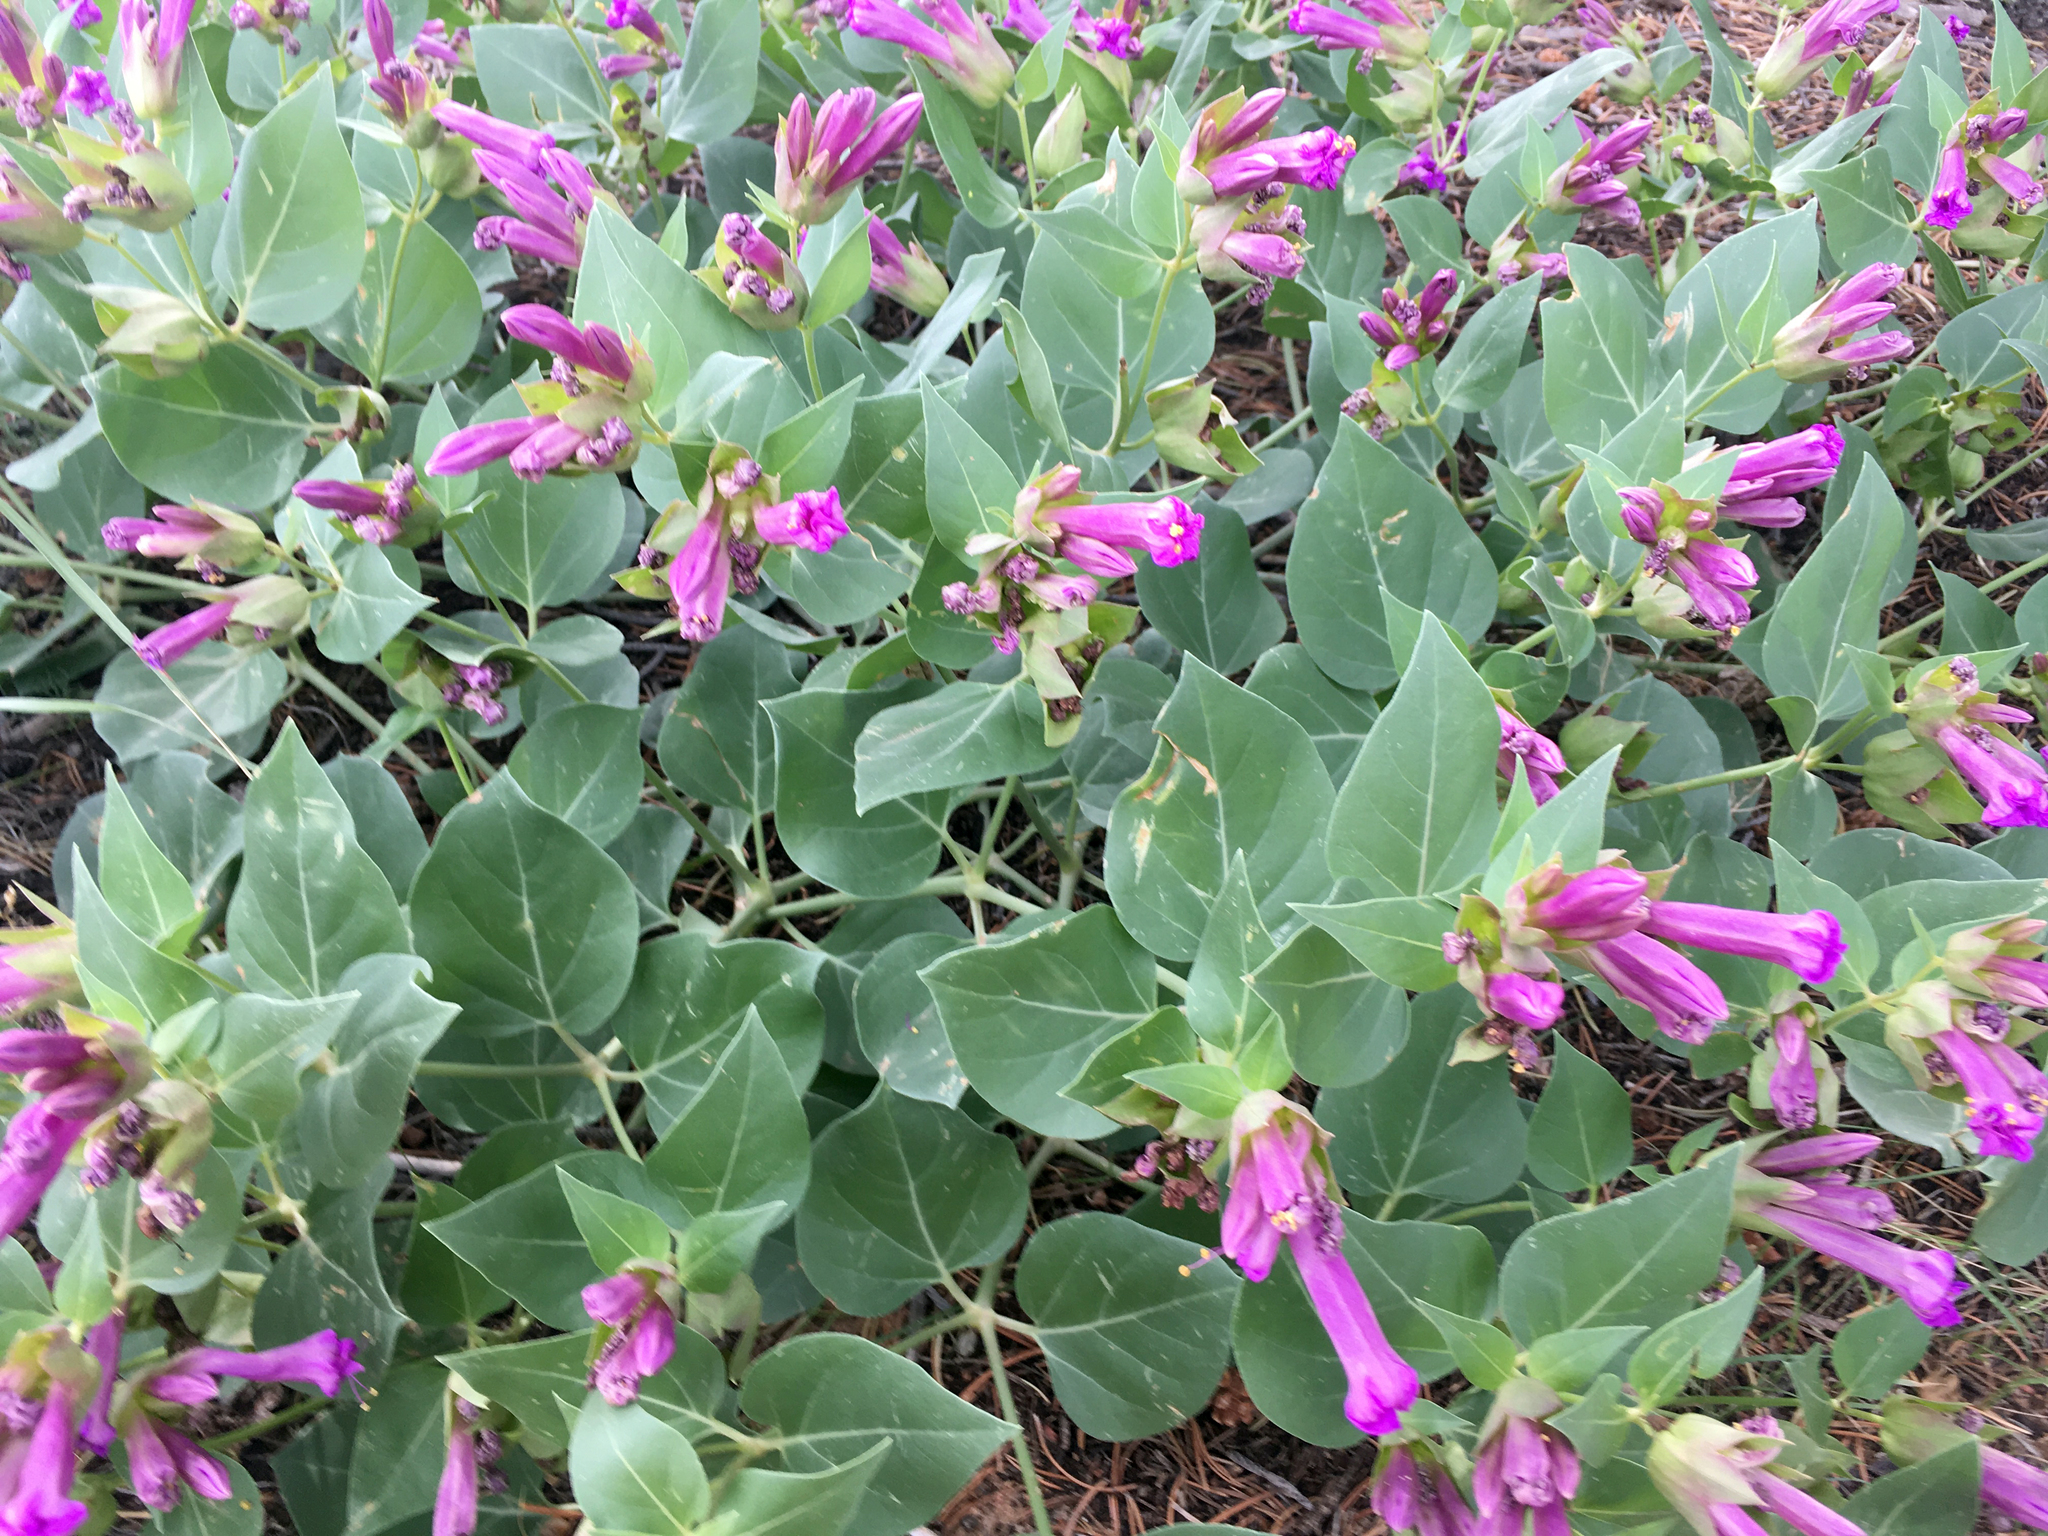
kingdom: Plantae
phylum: Tracheophyta
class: Magnoliopsida
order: Caryophyllales
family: Nyctaginaceae
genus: Mirabilis
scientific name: Mirabilis multiflora
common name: Froebel's four-o'clock
